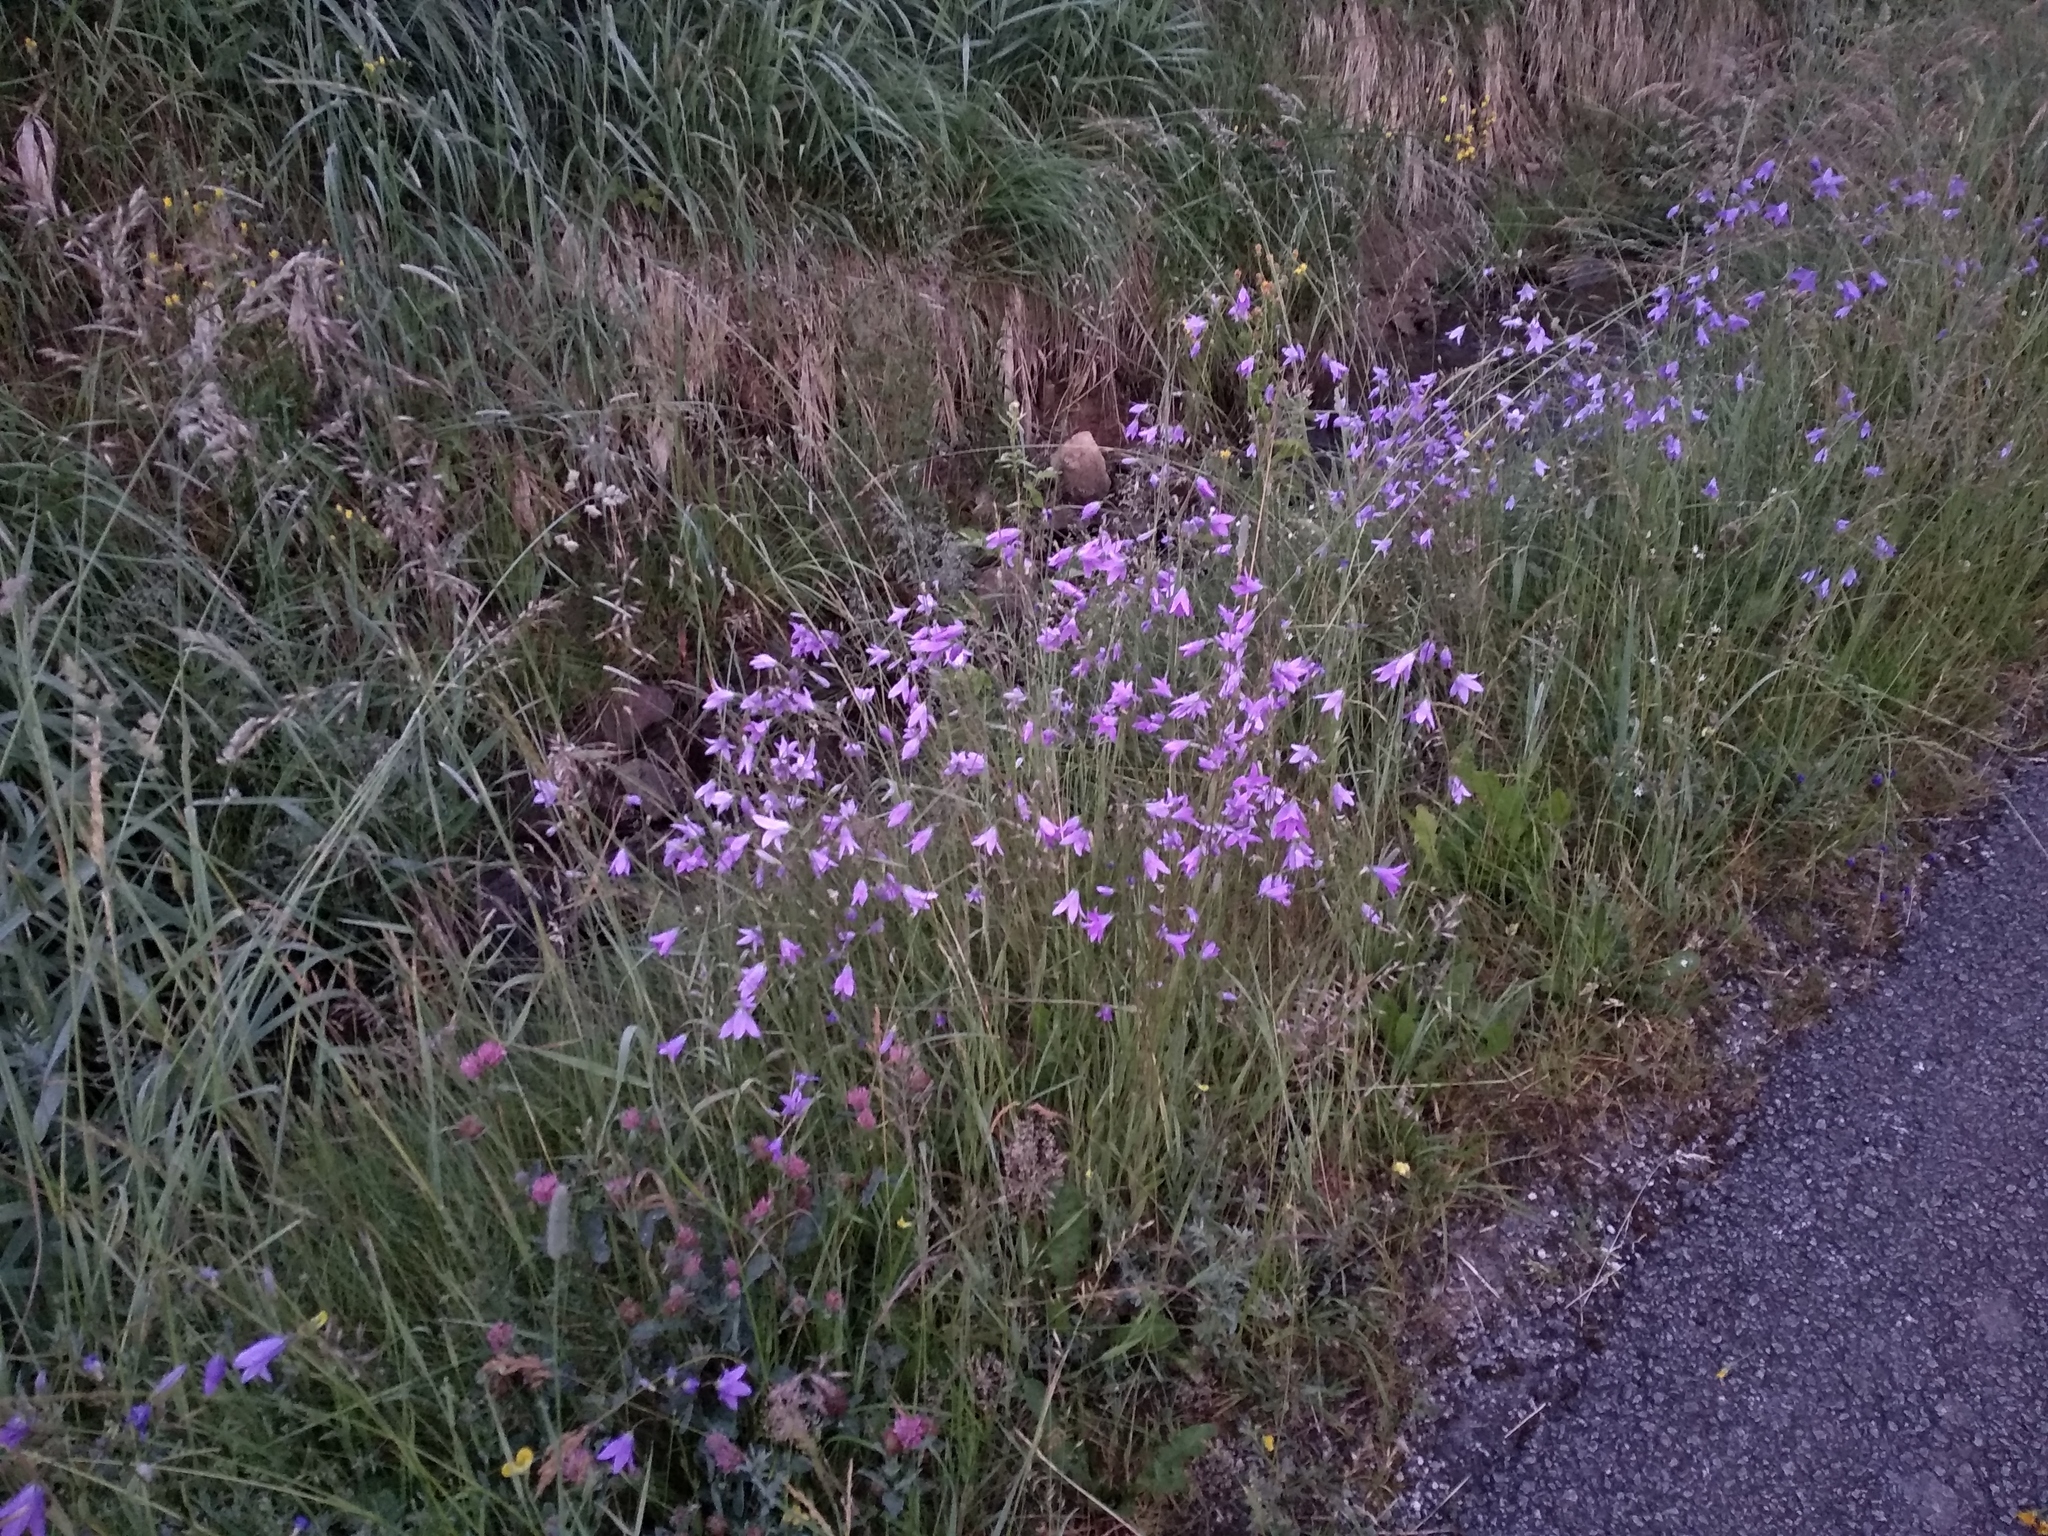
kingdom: Plantae
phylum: Tracheophyta
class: Magnoliopsida
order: Asterales
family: Campanulaceae
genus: Campanula
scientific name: Campanula patula
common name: Spreading bellflower
